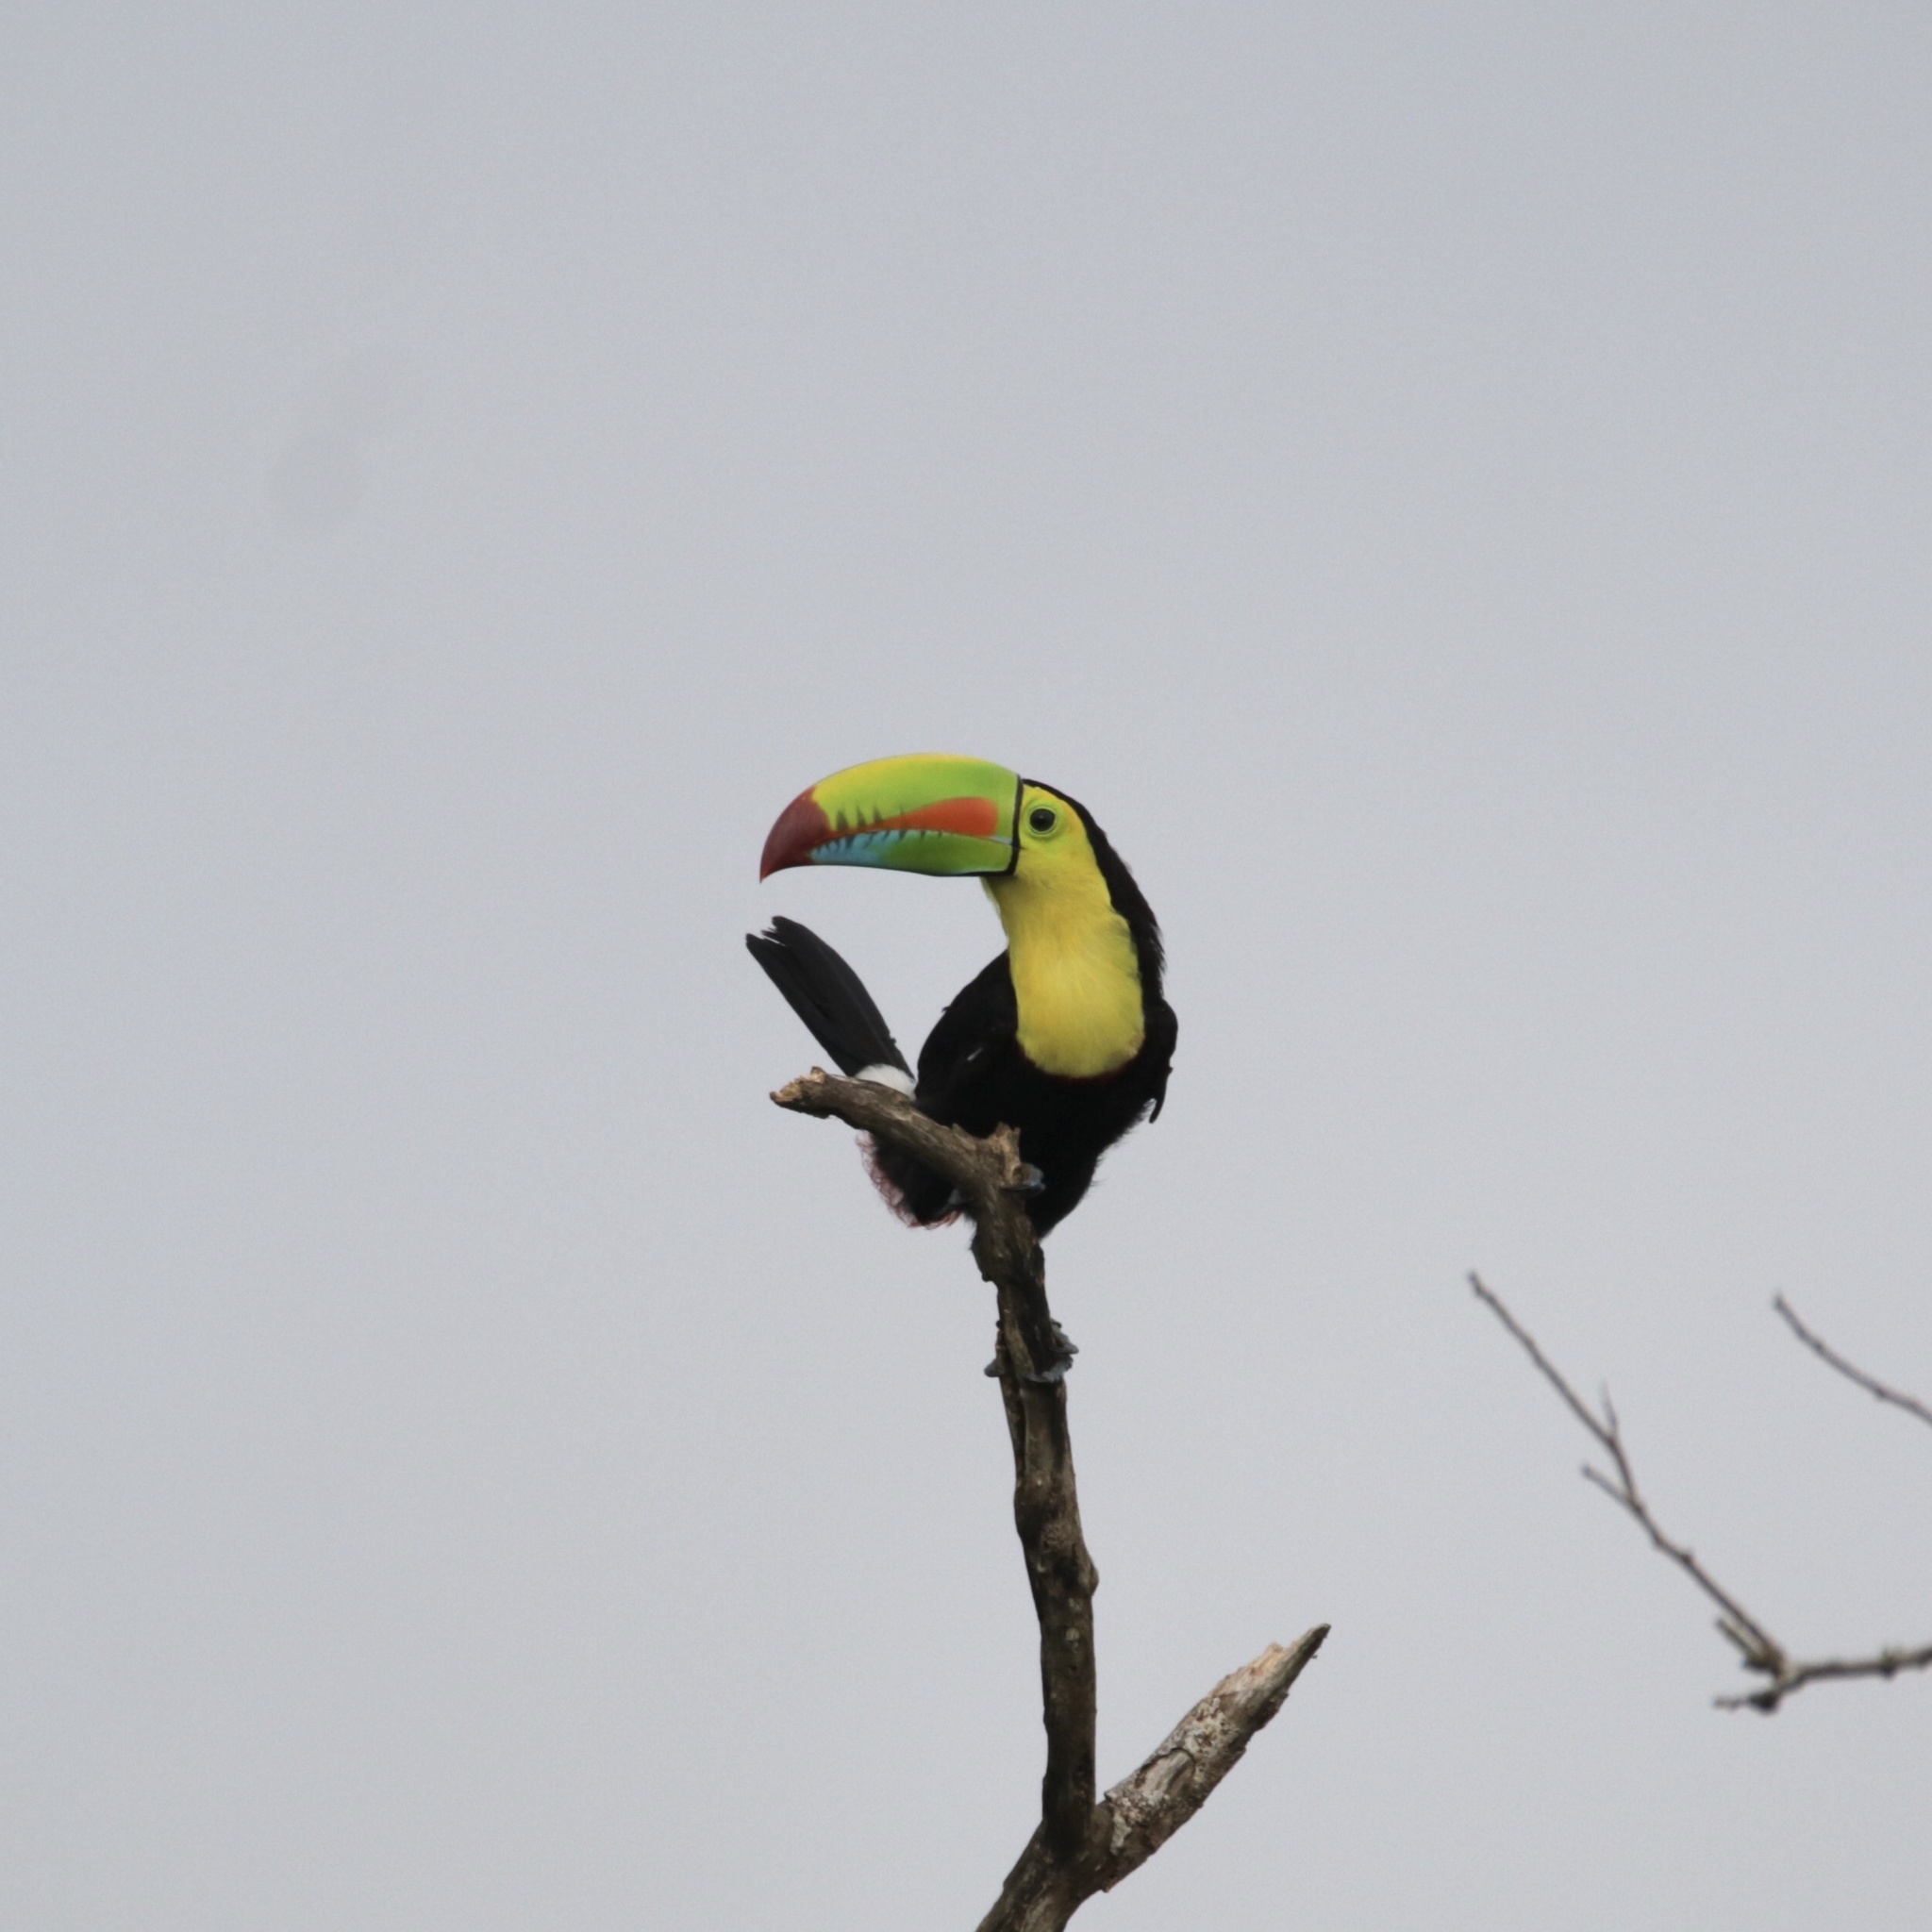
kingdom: Animalia
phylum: Chordata
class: Aves
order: Piciformes
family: Ramphastidae
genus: Ramphastos
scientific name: Ramphastos sulfuratus
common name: Keel-billed toucan
